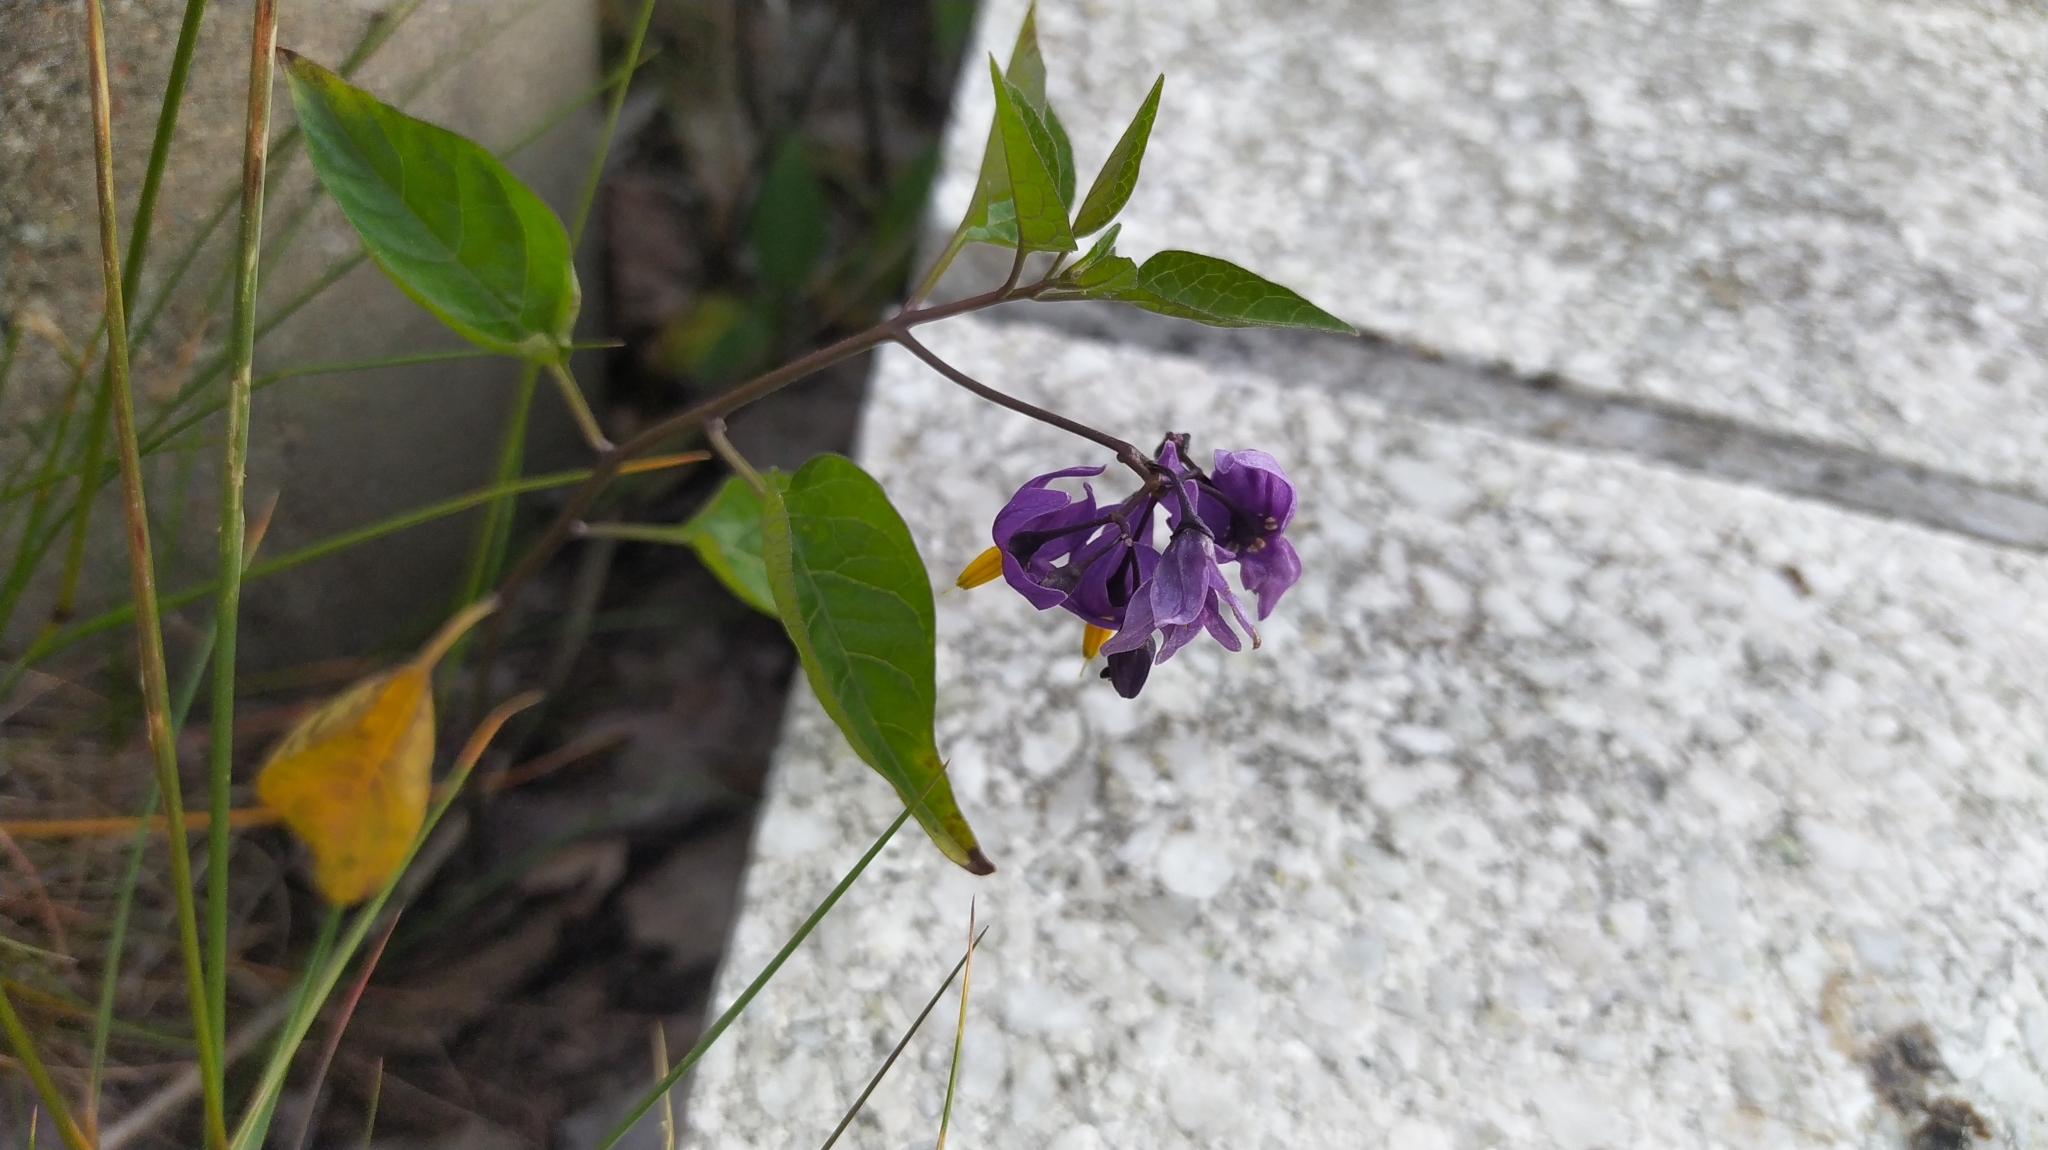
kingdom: Plantae
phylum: Tracheophyta
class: Magnoliopsida
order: Solanales
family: Solanaceae
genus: Solanum
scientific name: Solanum dulcamara
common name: Climbing nightshade
